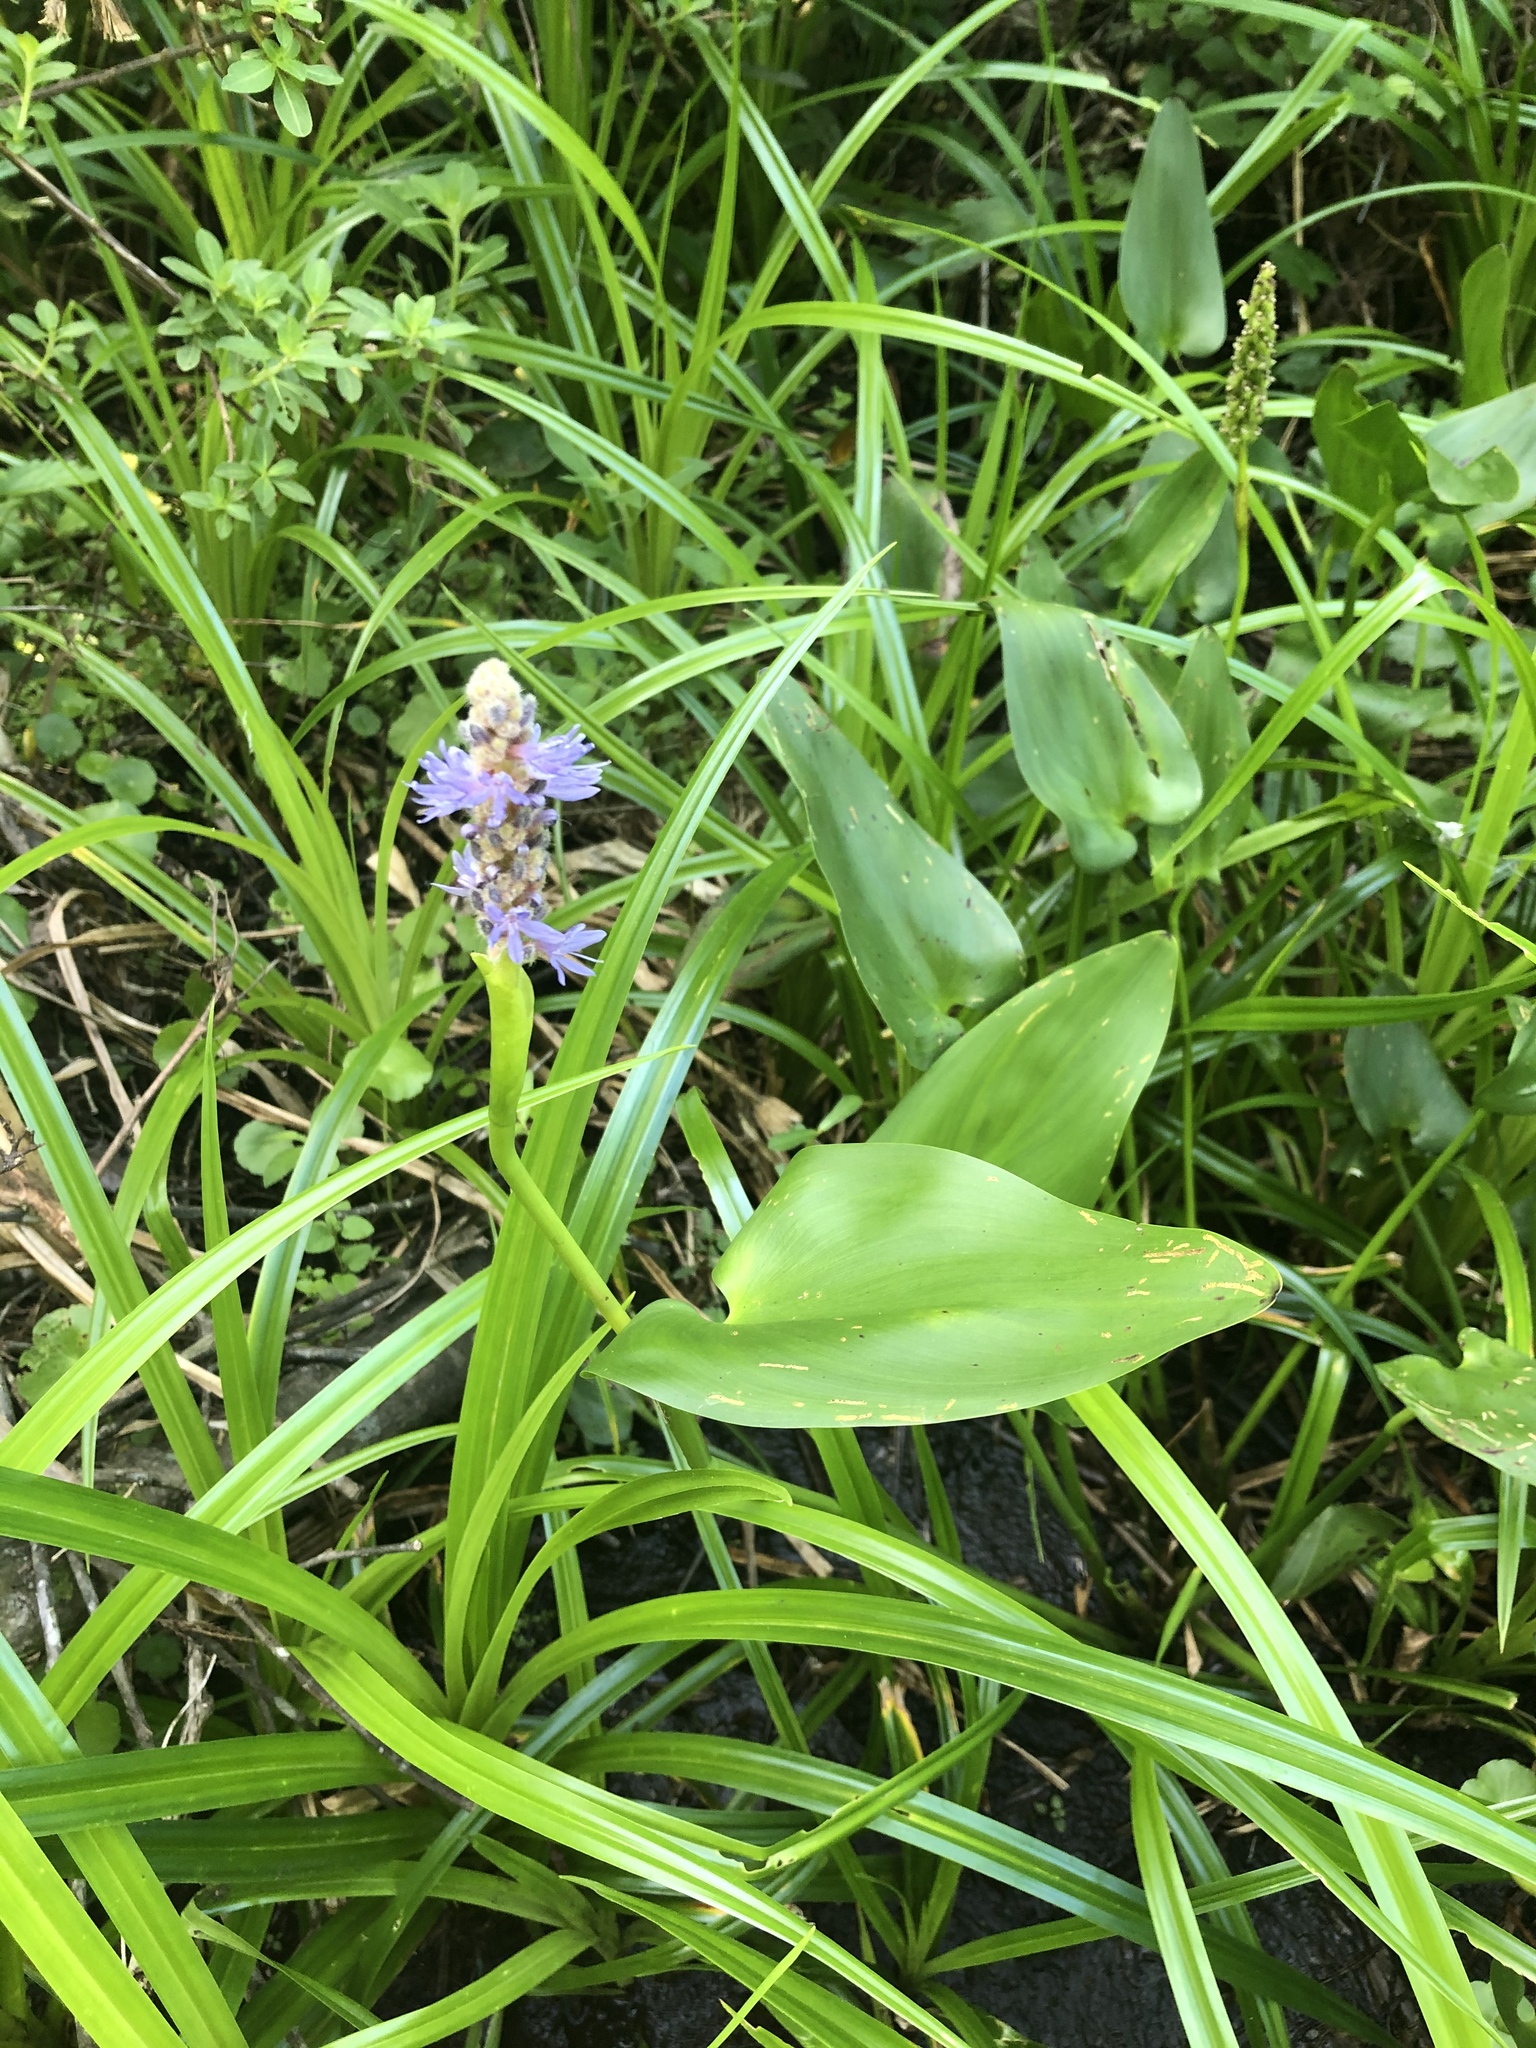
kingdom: Plantae
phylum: Tracheophyta
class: Liliopsida
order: Commelinales
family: Pontederiaceae
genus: Pontederia
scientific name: Pontederia cordata
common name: Pickerelweed
